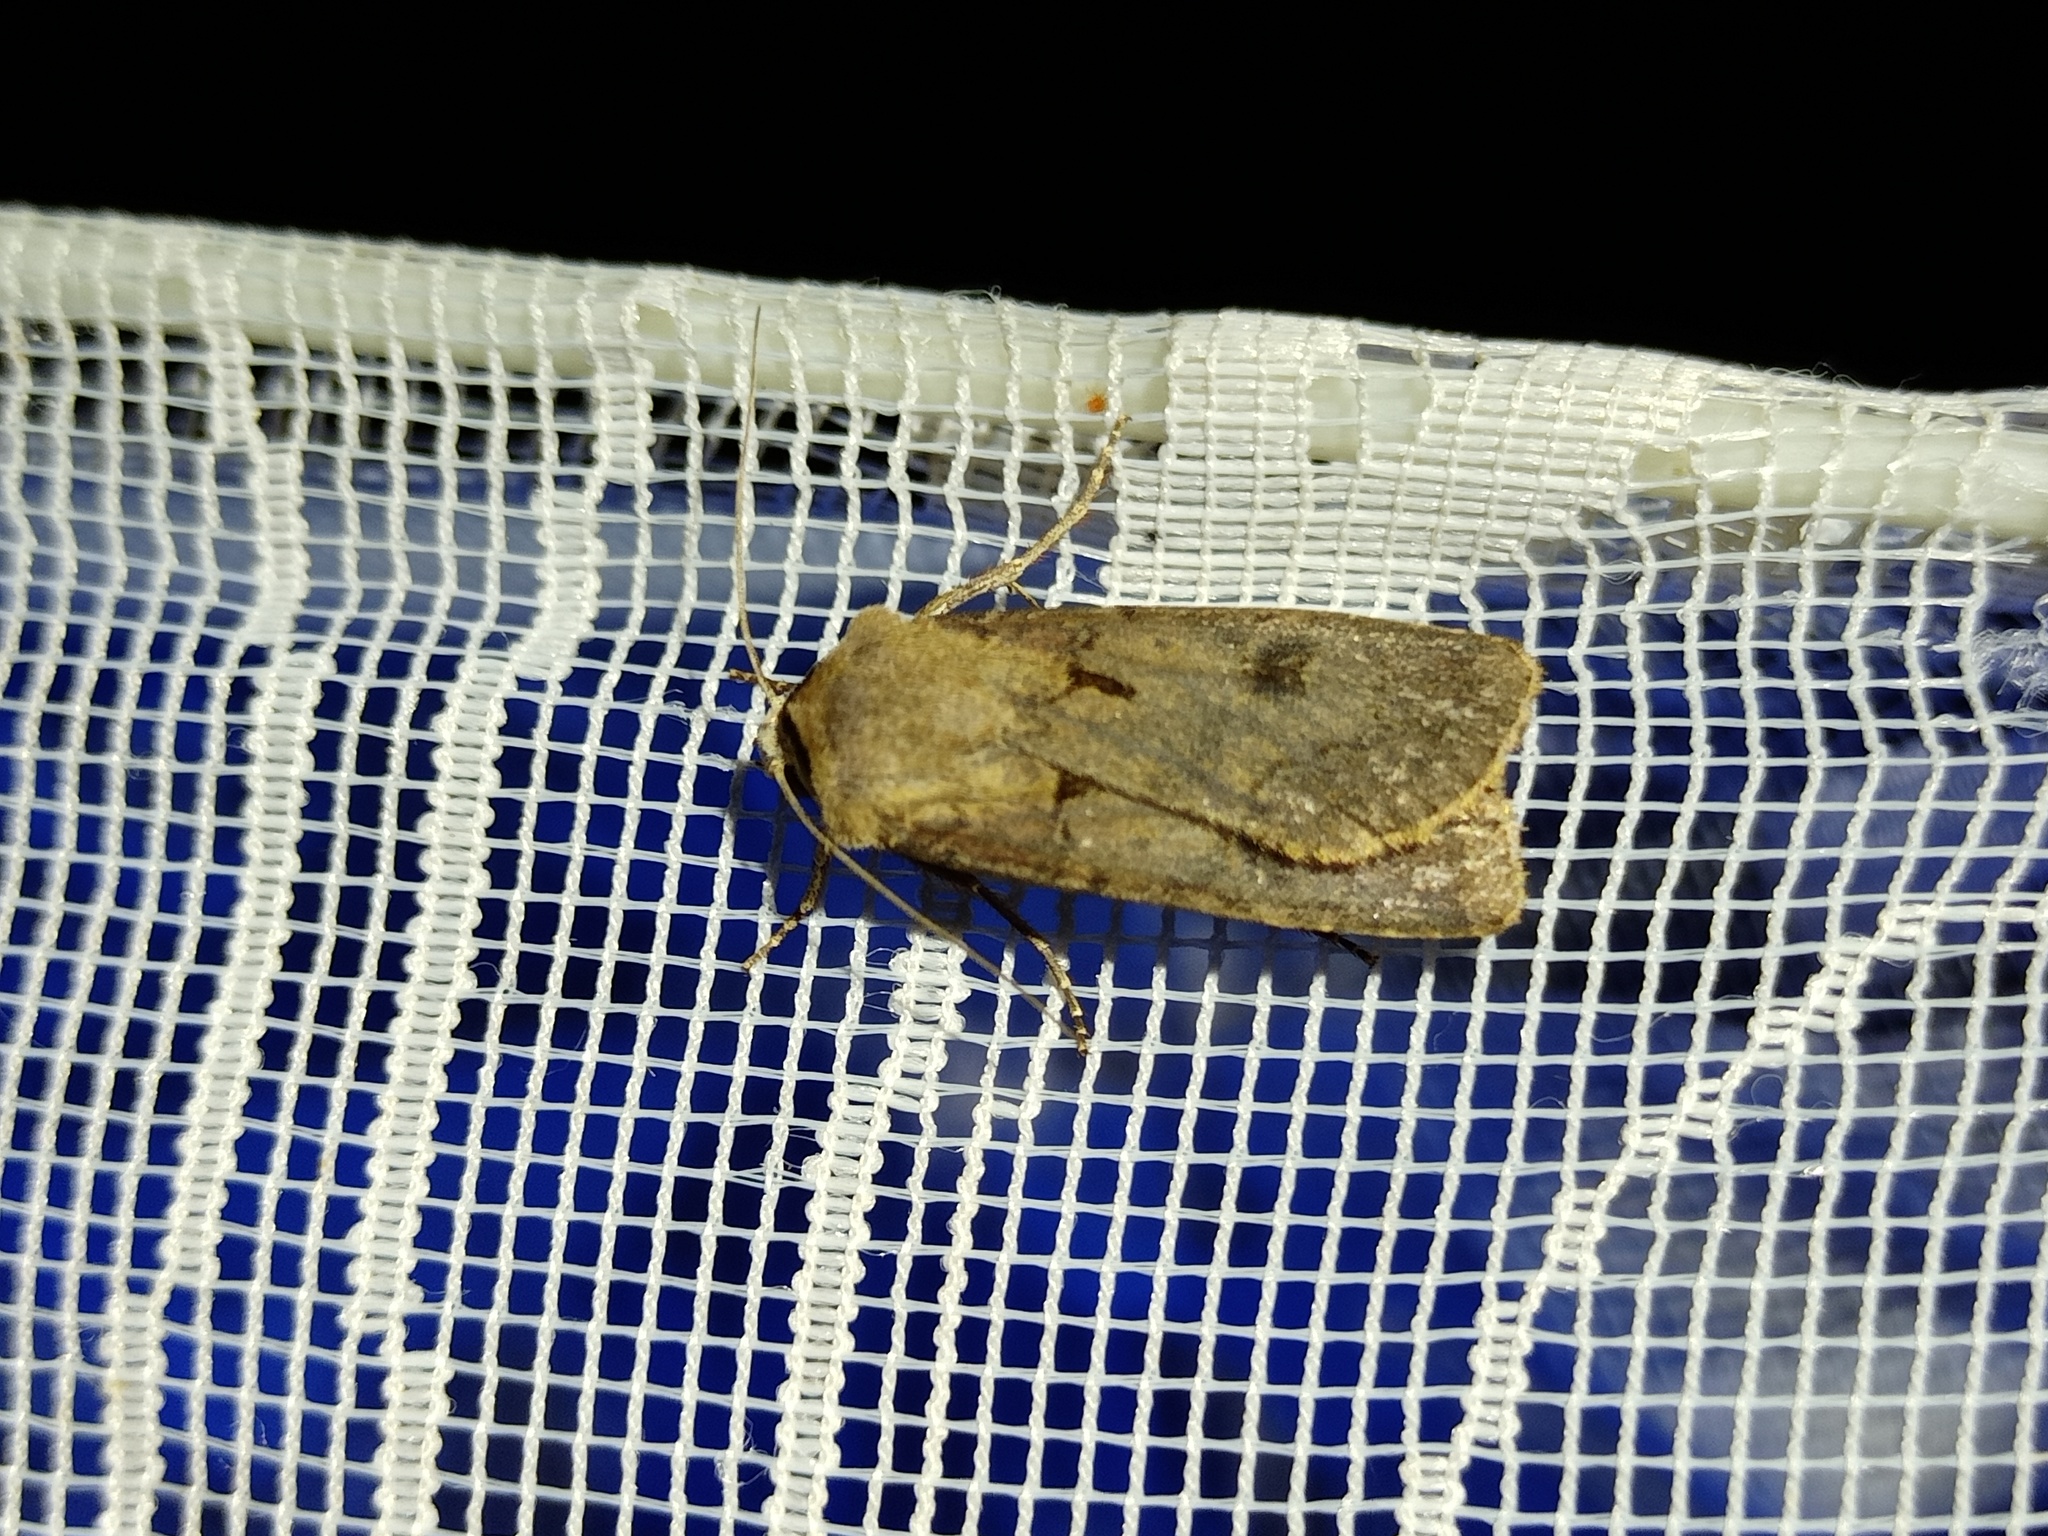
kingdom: Animalia
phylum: Arthropoda
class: Insecta
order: Lepidoptera
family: Noctuidae
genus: Agrotis
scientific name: Agrotis exclamationis
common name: Heart and dart
